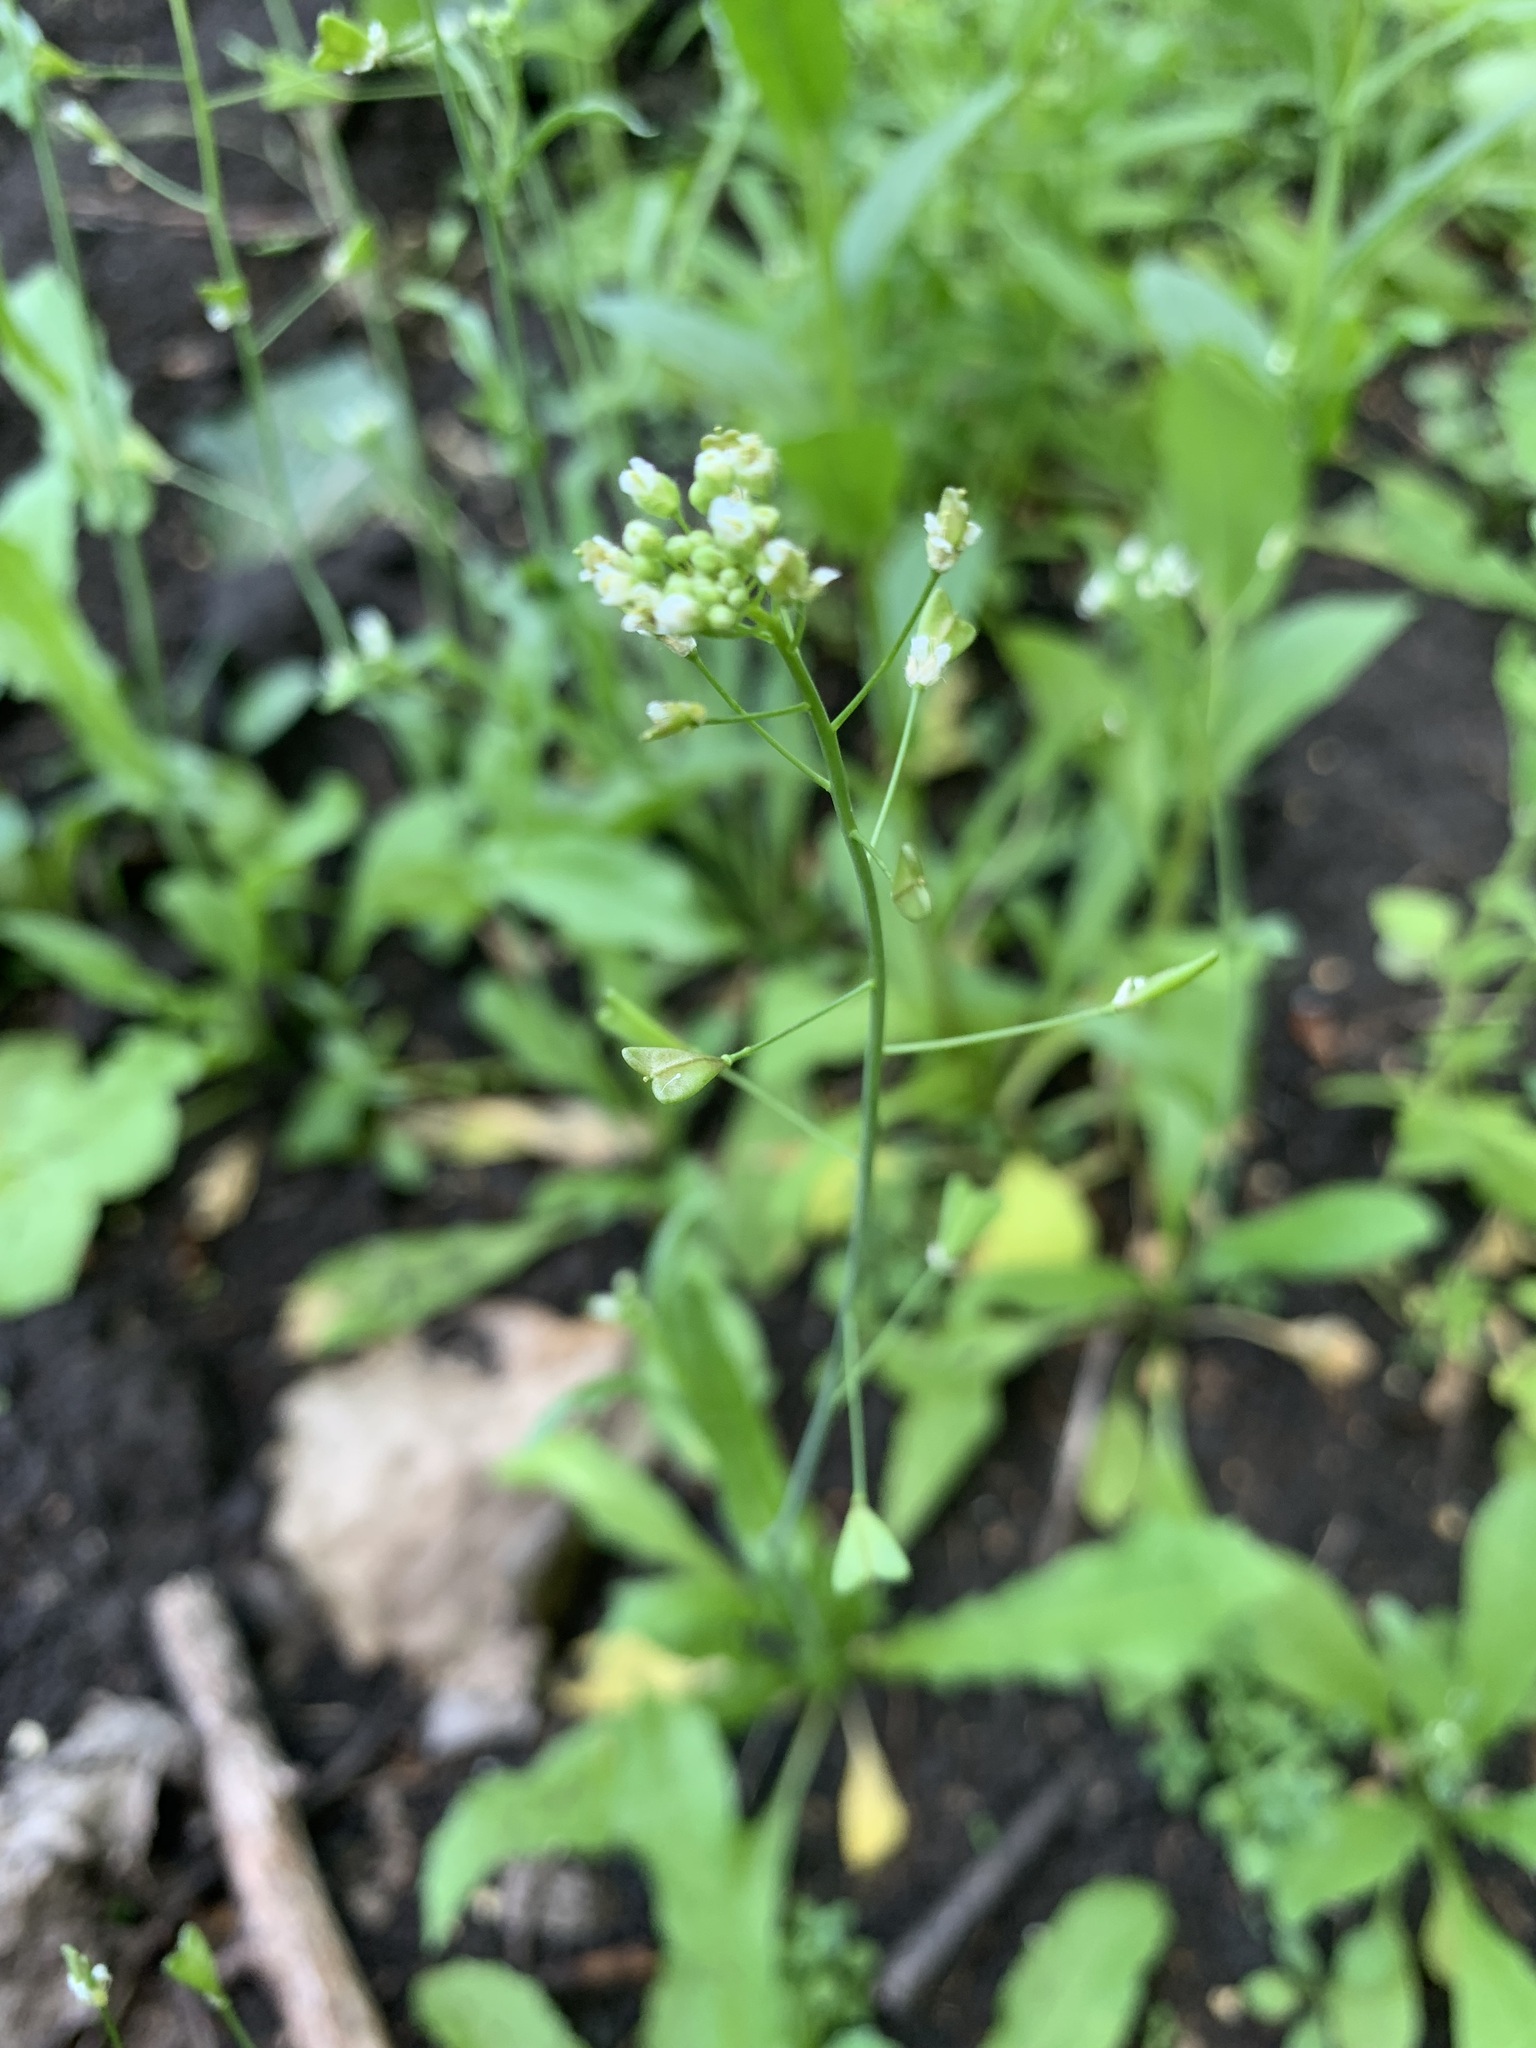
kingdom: Plantae
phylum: Tracheophyta
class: Magnoliopsida
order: Brassicales
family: Brassicaceae
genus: Capsella
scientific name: Capsella bursa-pastoris
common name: Shepherd's purse
